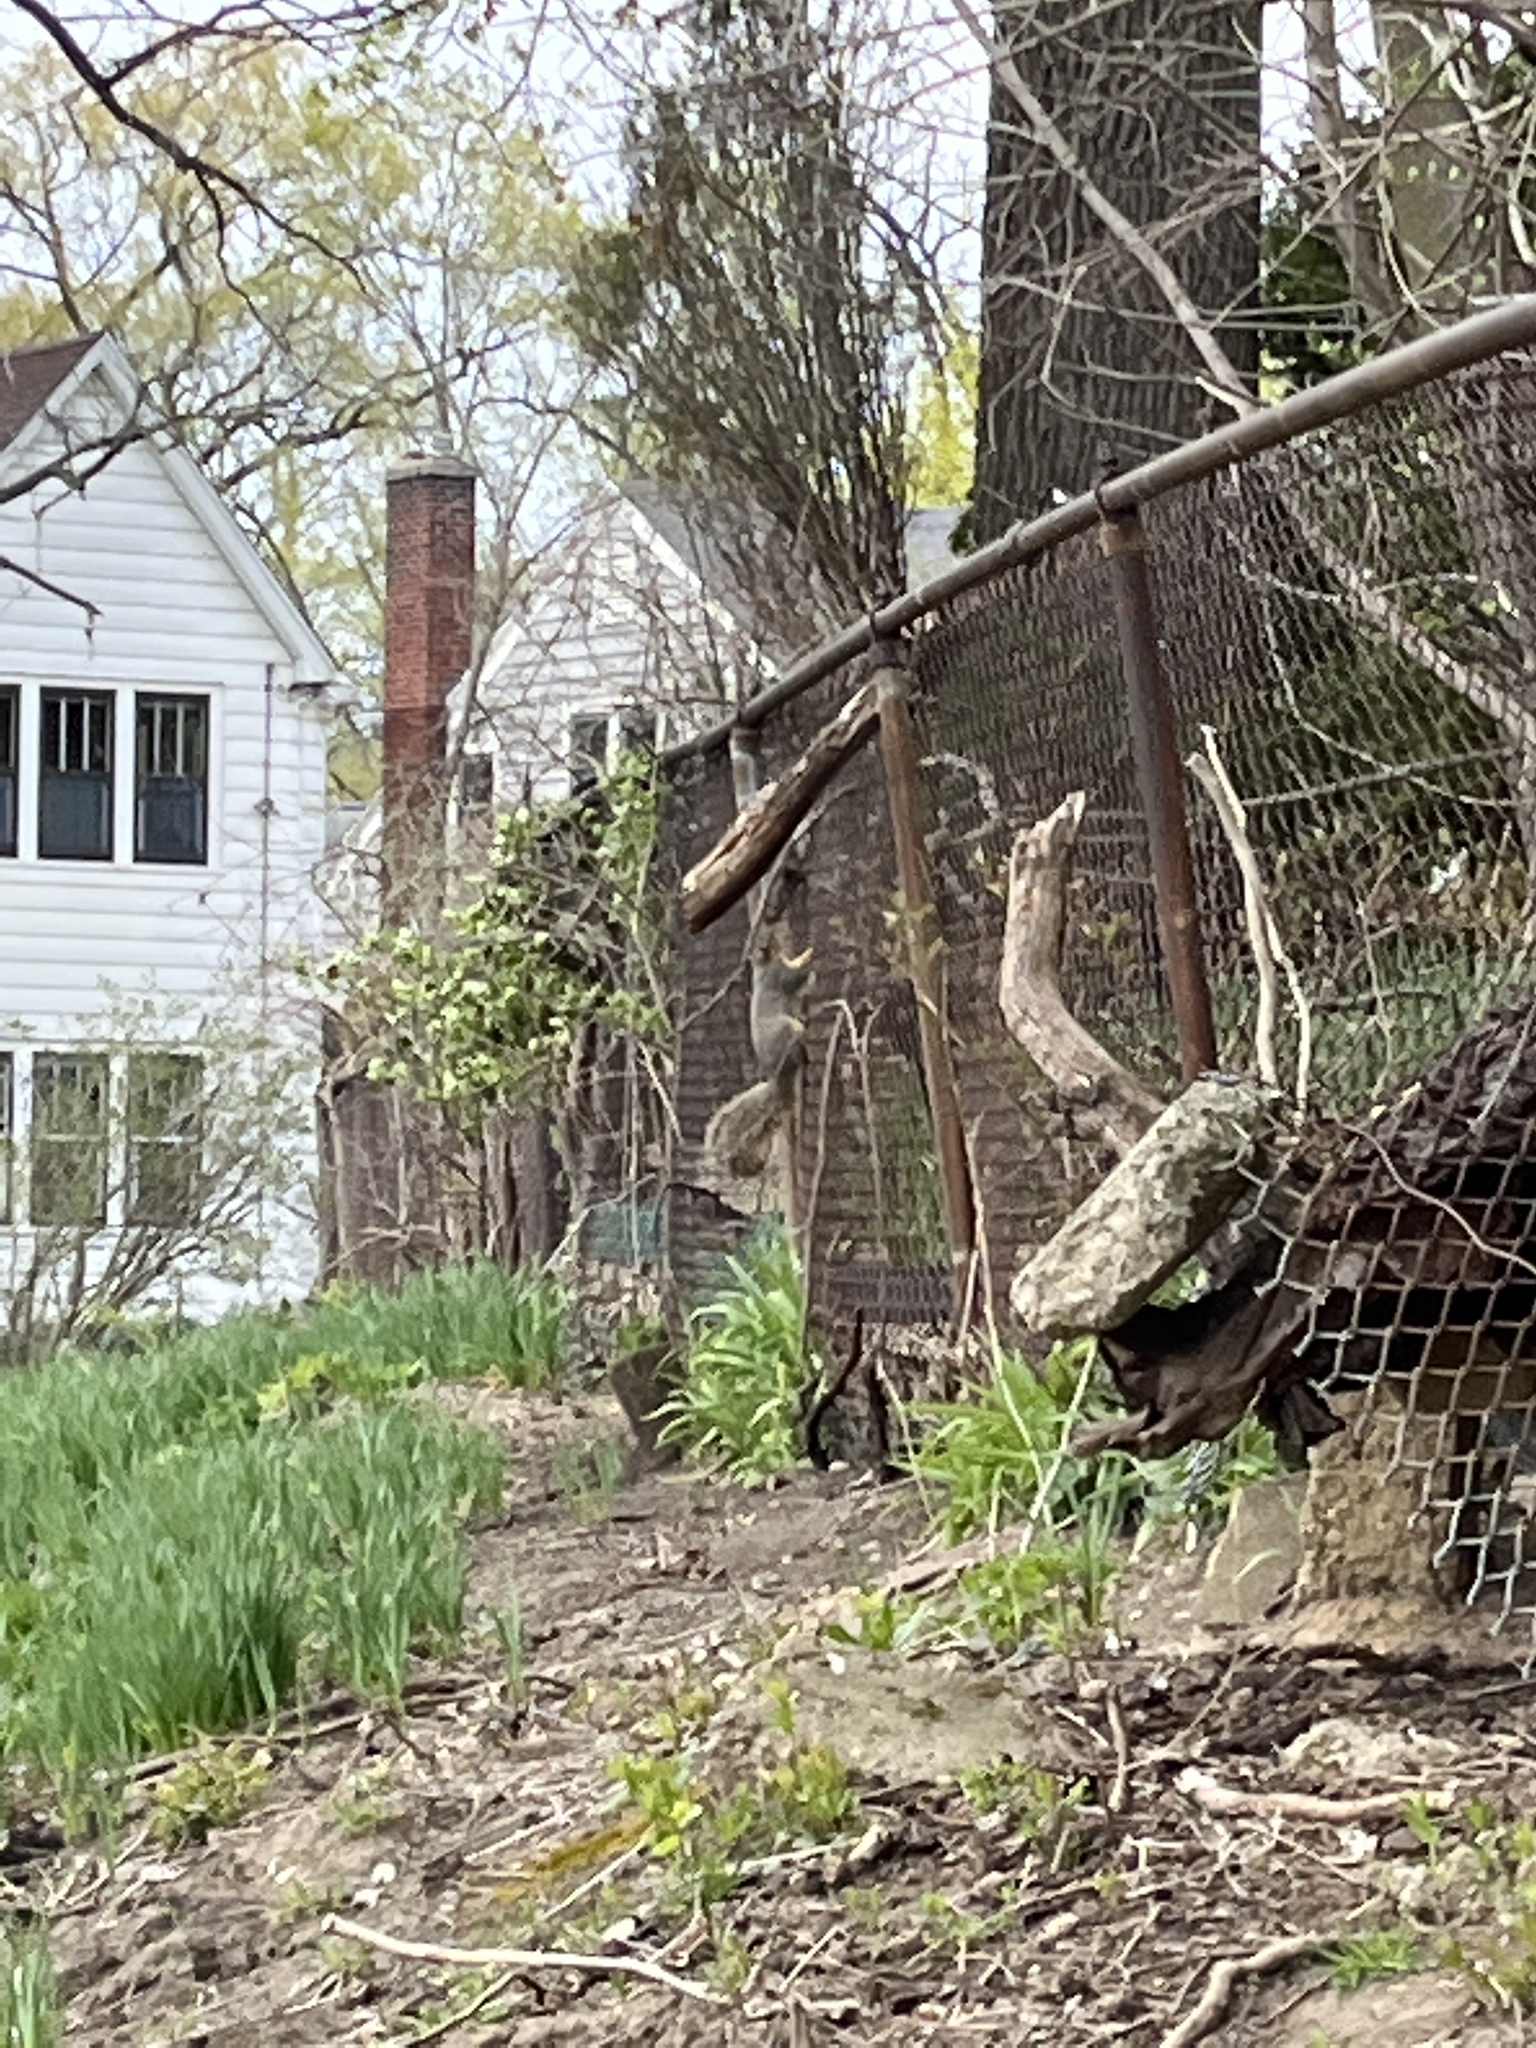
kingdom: Animalia
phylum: Chordata
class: Mammalia
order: Rodentia
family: Sciuridae
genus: Sciurus
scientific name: Sciurus niger
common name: Fox squirrel
